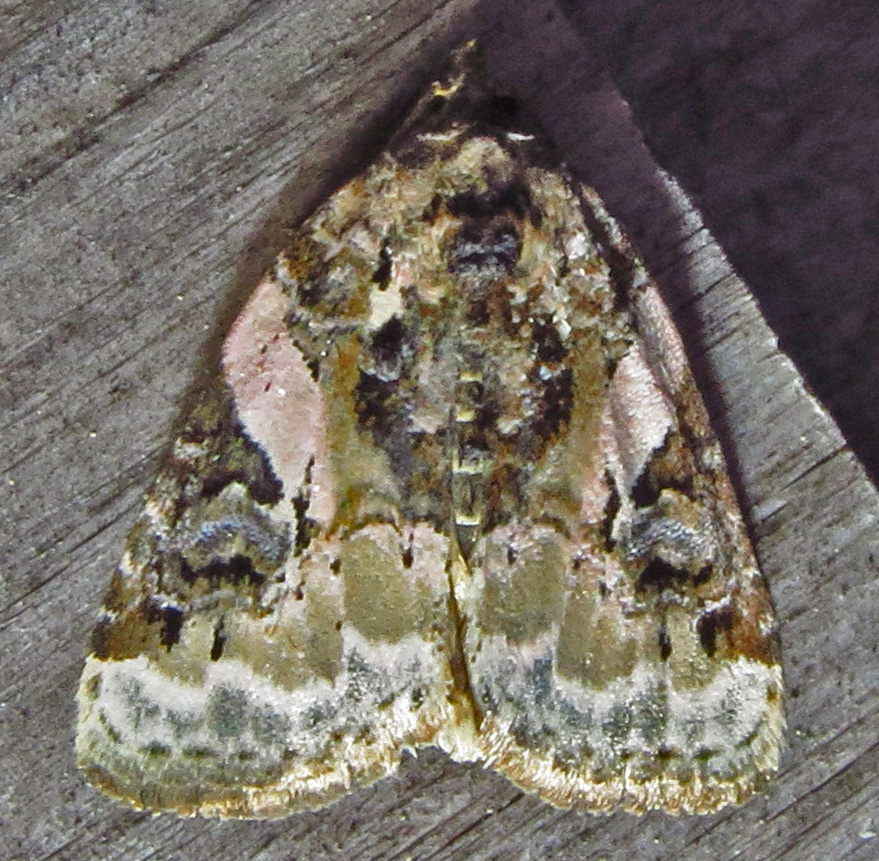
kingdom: Animalia
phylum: Arthropoda
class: Insecta
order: Lepidoptera
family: Noctuidae
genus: Pseudeustrotia
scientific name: Pseudeustrotia carneola
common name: Pink-barred lithacodia moth
